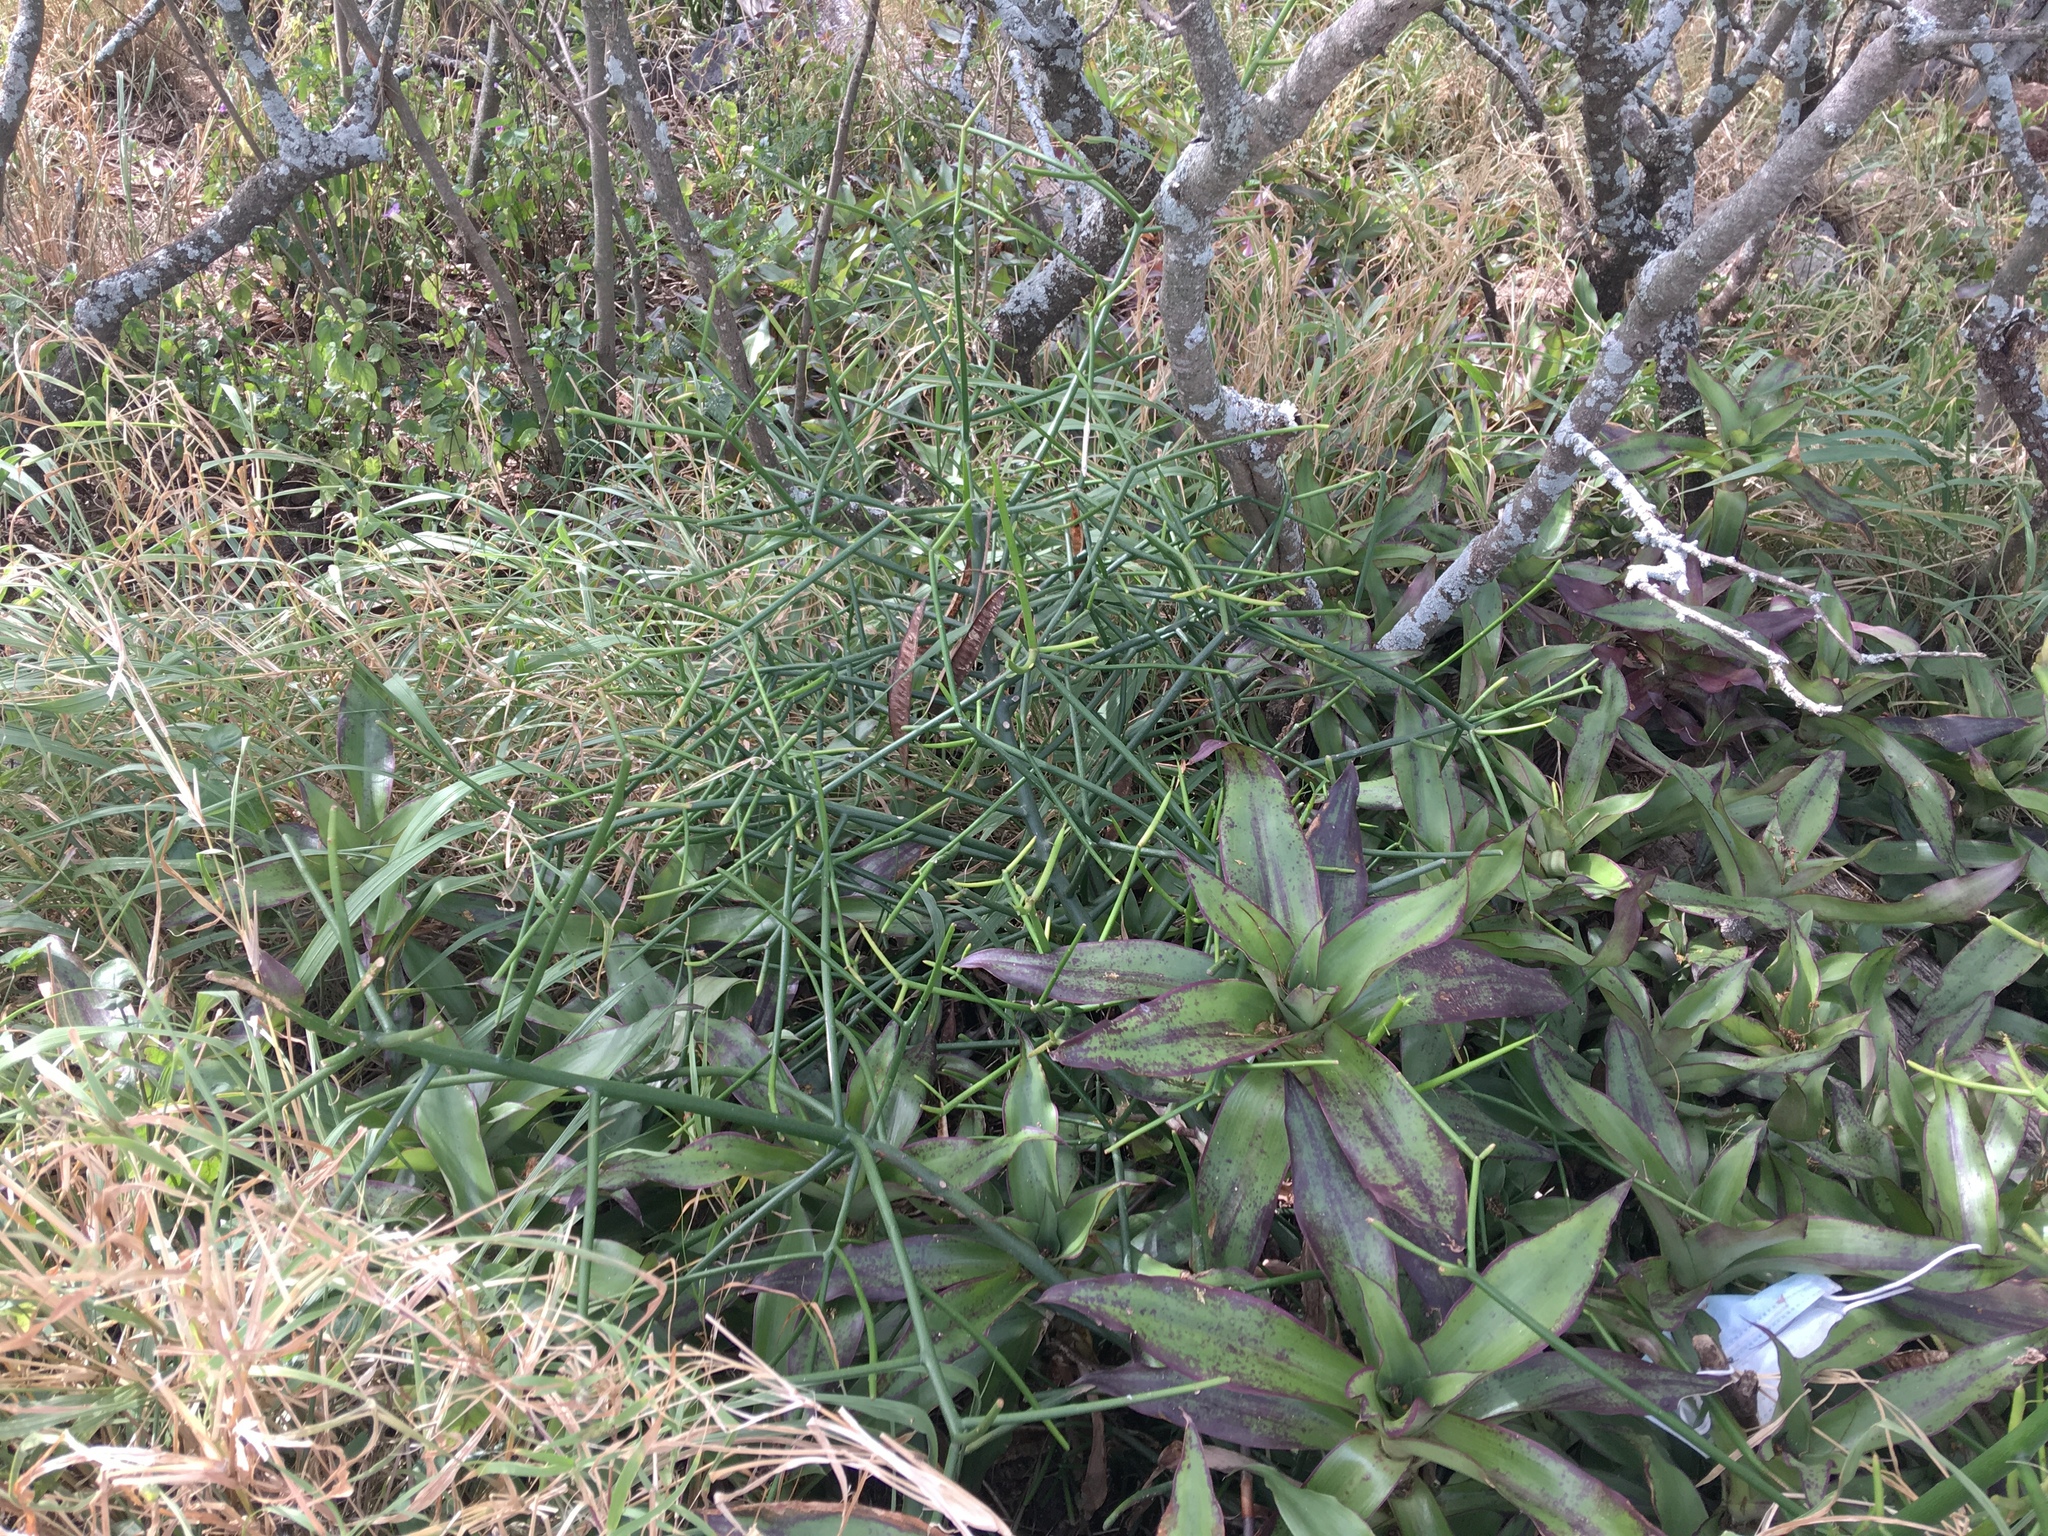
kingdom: Plantae
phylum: Tracheophyta
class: Magnoliopsida
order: Malpighiales
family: Euphorbiaceae
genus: Euphorbia
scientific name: Euphorbia tirucalli
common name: Indiantree spurge
